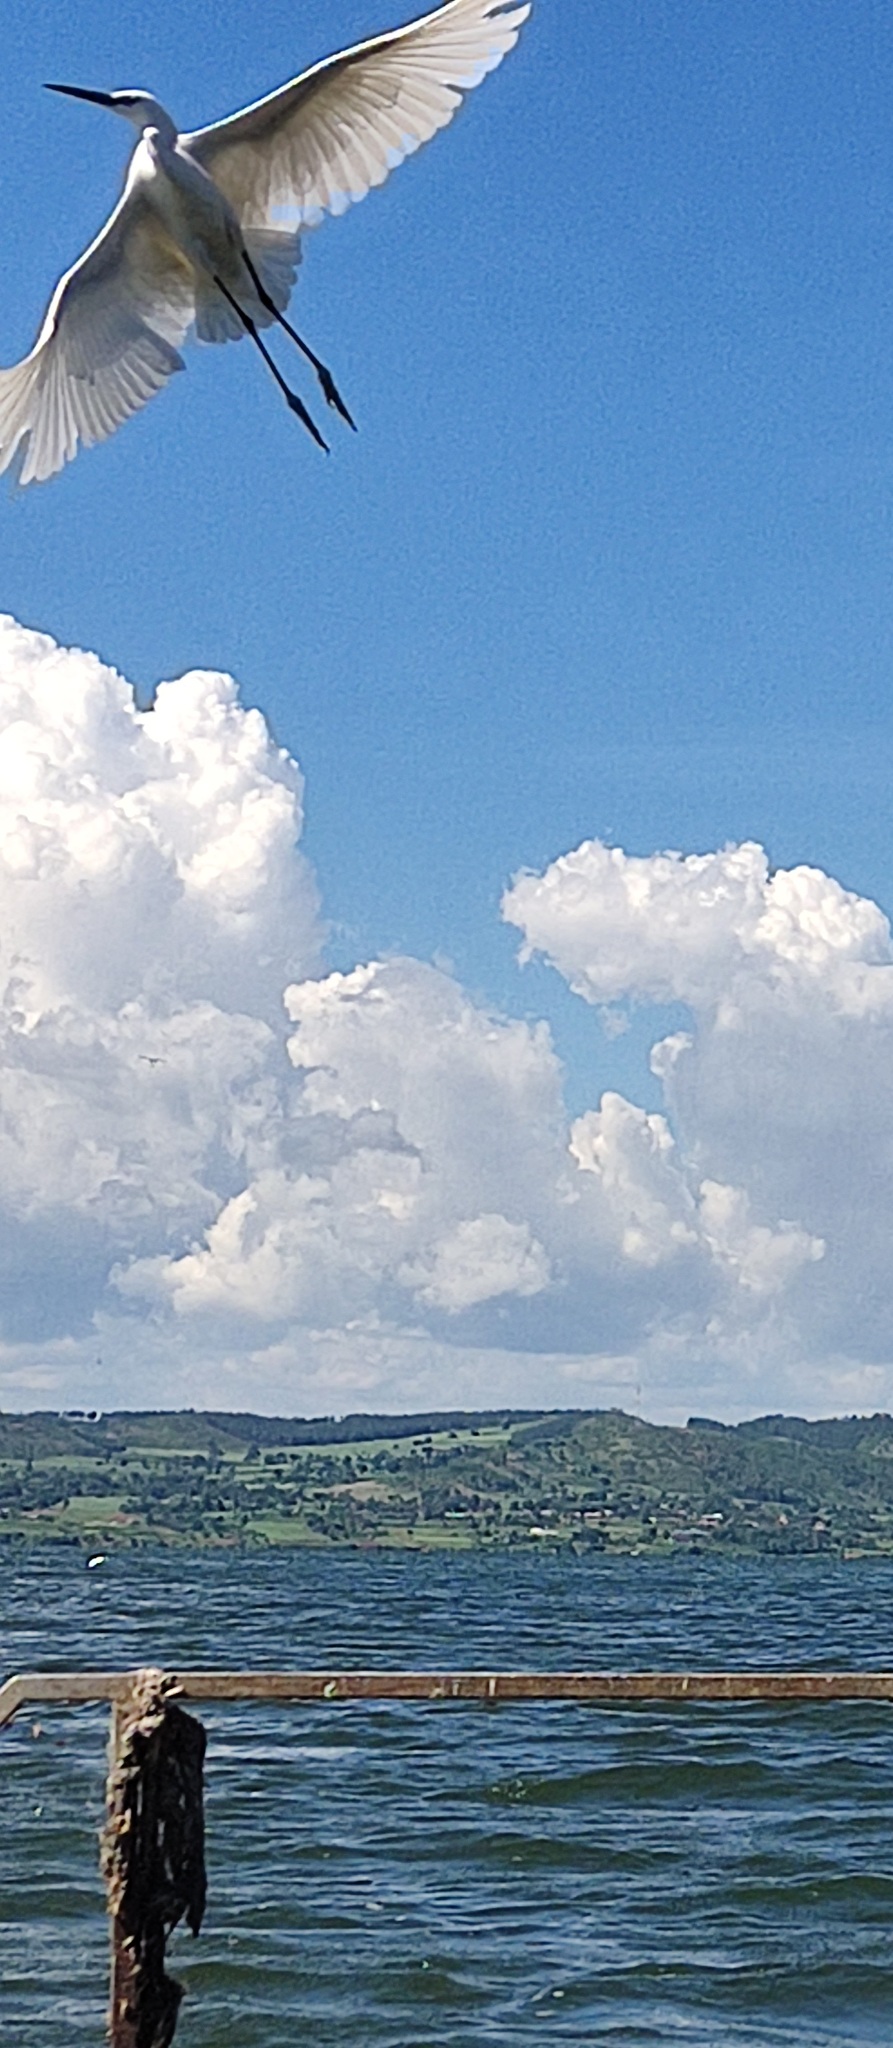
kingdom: Animalia
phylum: Chordata
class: Aves
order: Pelecaniformes
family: Ardeidae
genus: Egretta
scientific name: Egretta garzetta
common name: Little egret
